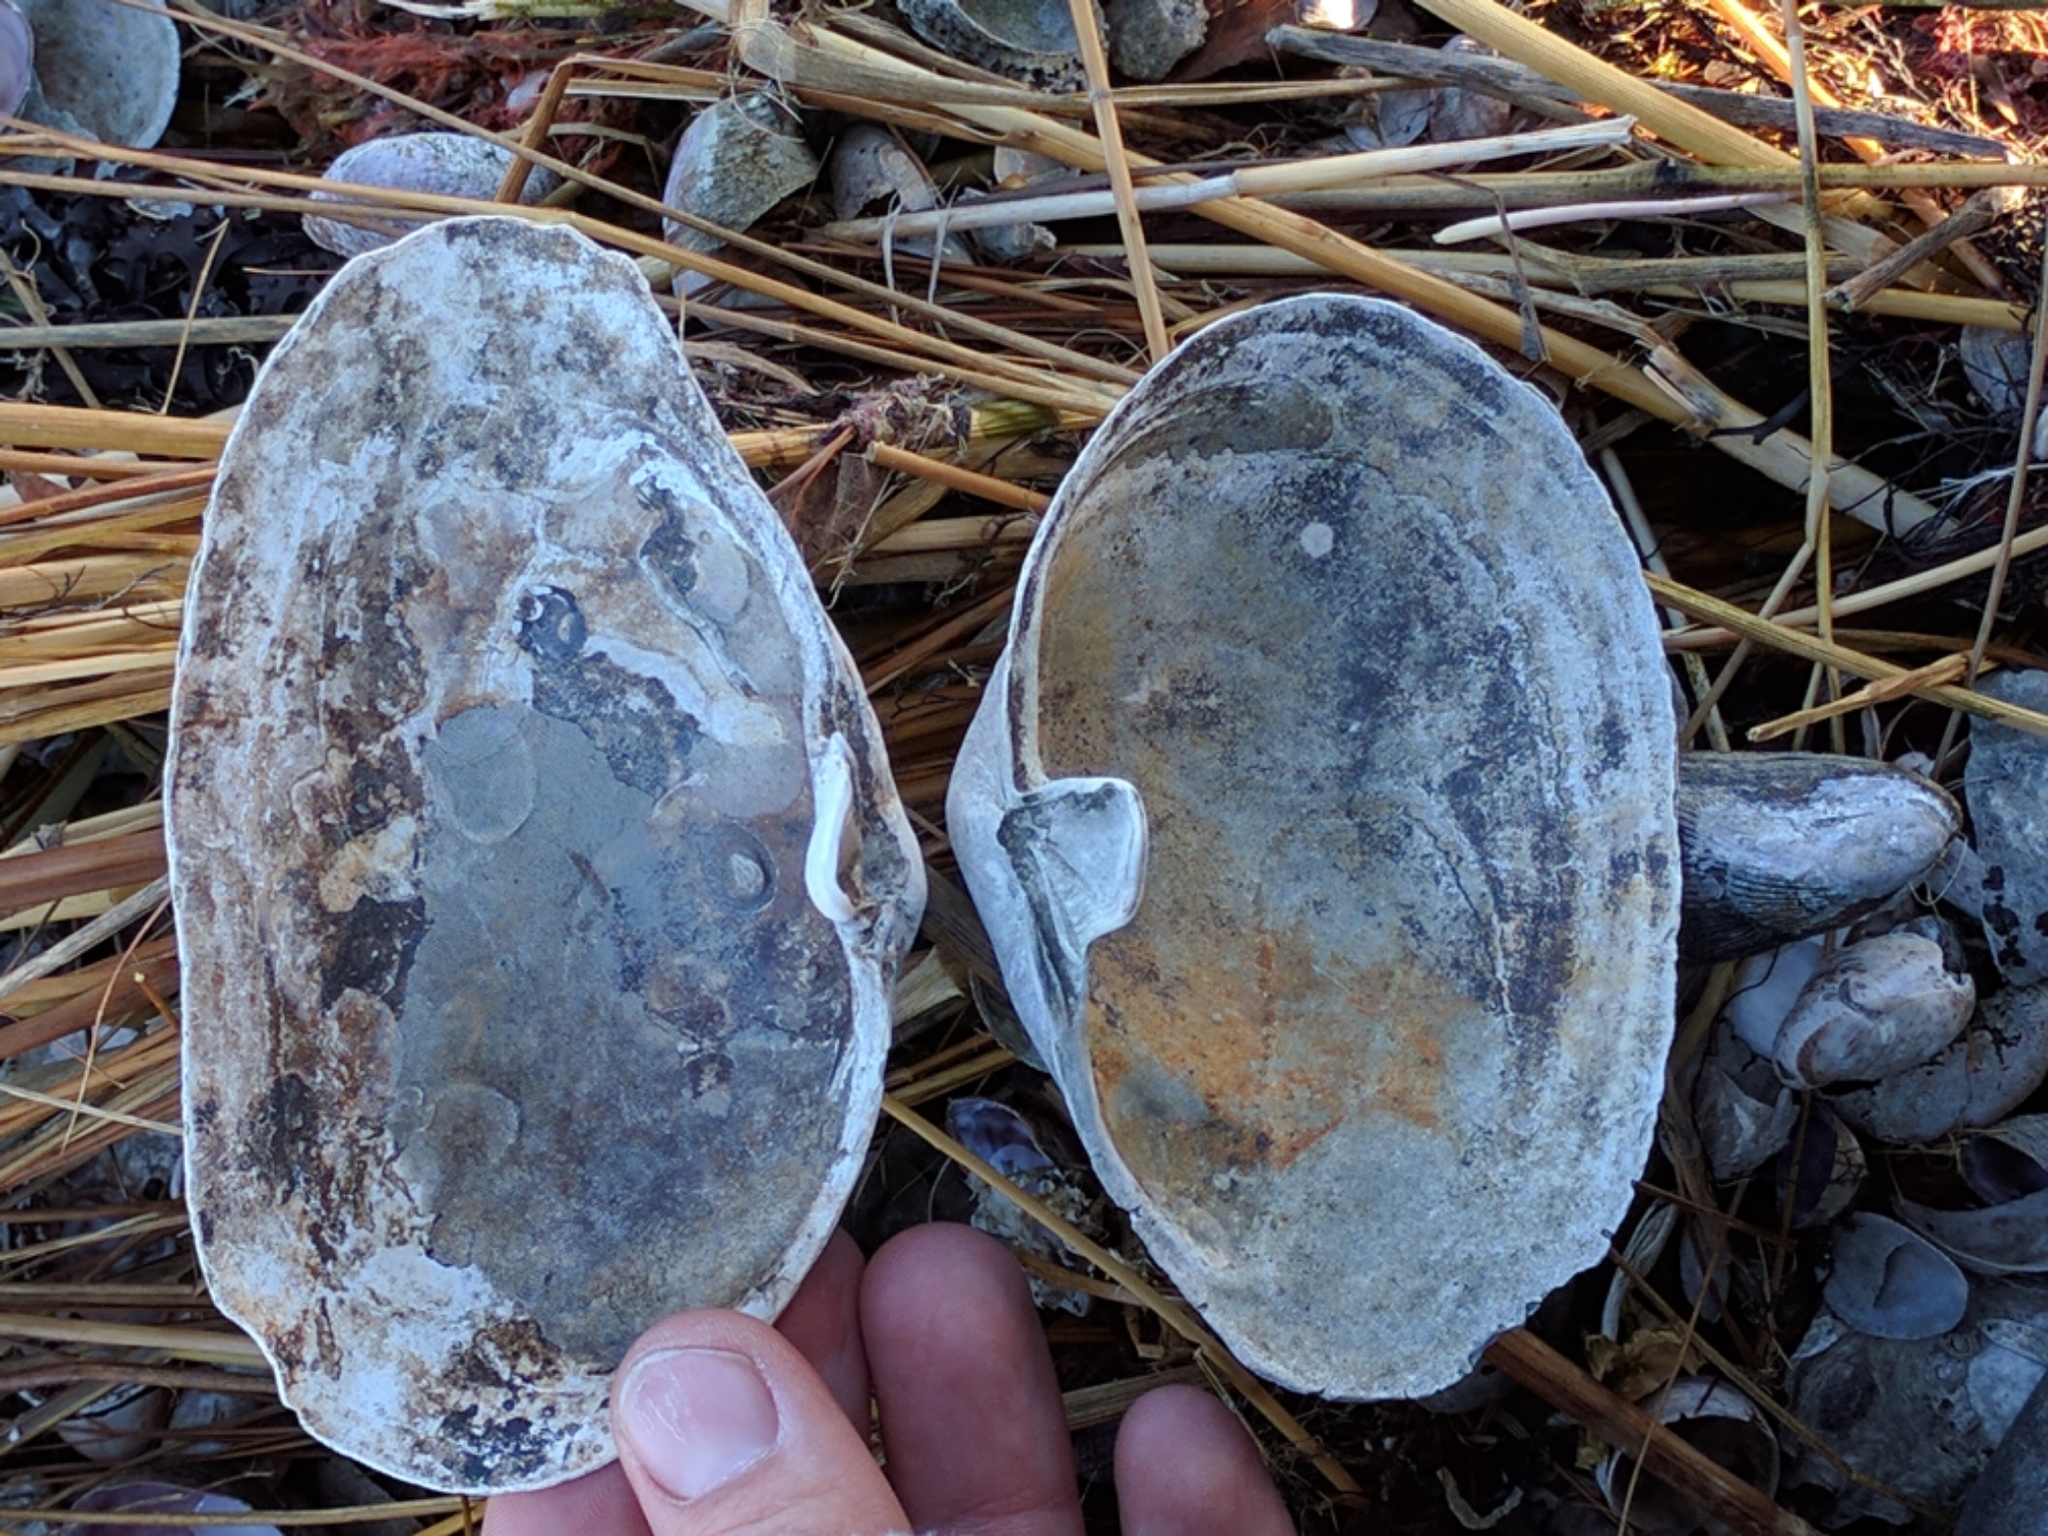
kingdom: Animalia
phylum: Mollusca
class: Bivalvia
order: Myida
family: Myidae
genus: Mya
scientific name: Mya arenaria
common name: Soft-shelled clam
